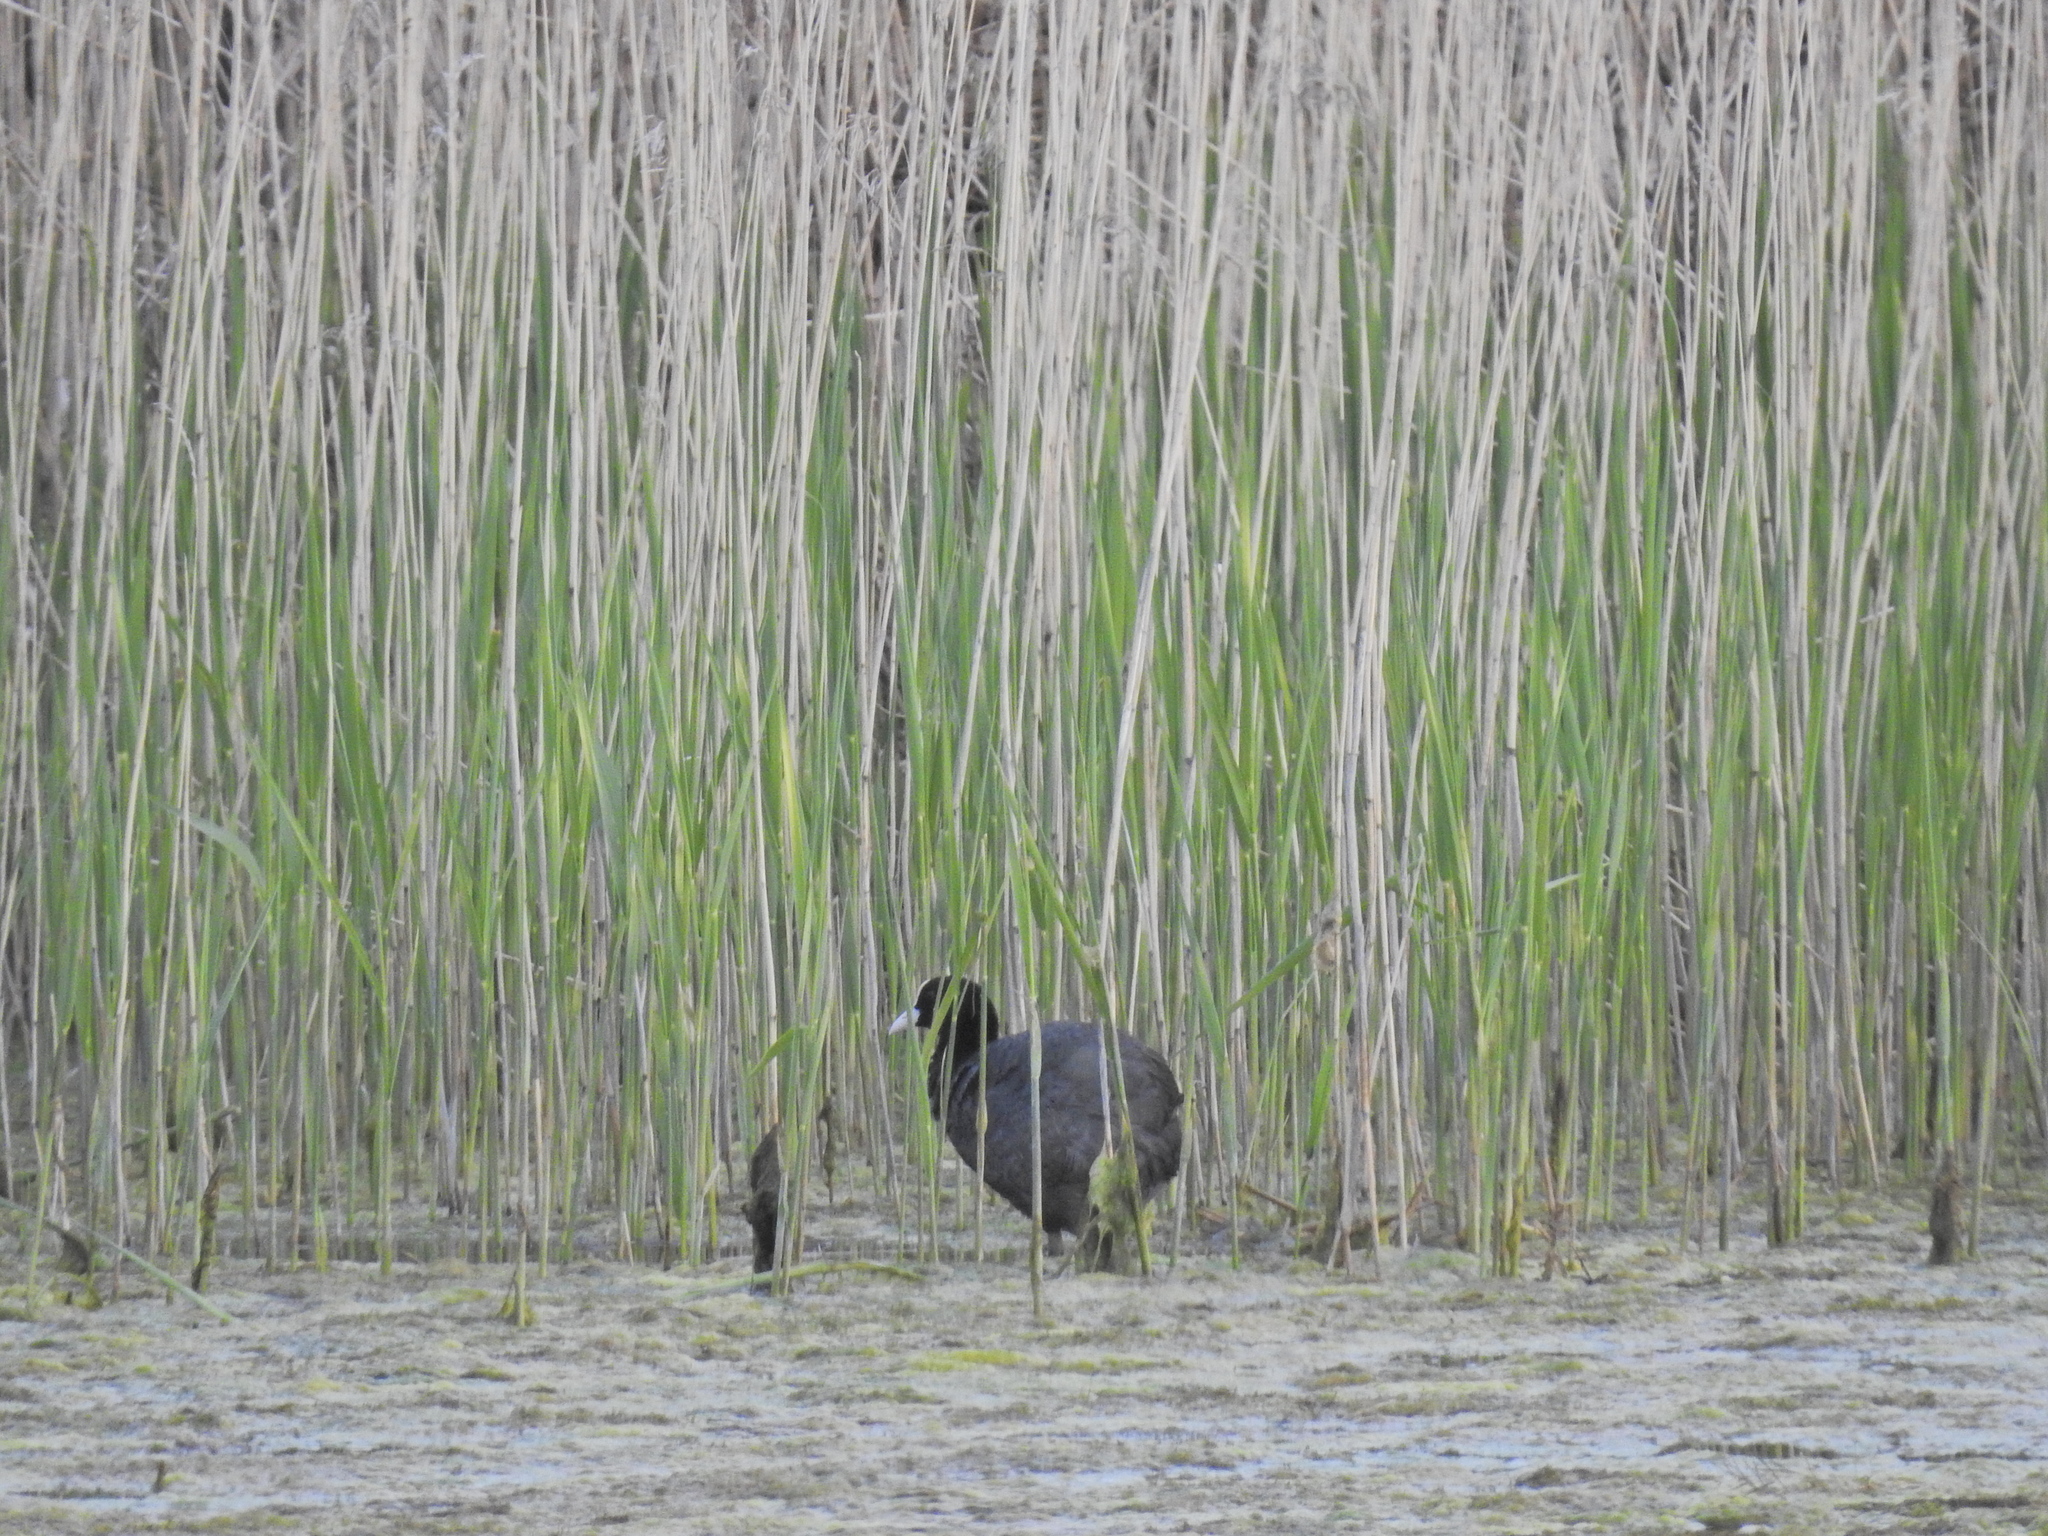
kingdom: Animalia
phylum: Chordata
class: Aves
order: Gruiformes
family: Rallidae
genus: Fulica
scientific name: Fulica atra
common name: Eurasian coot
